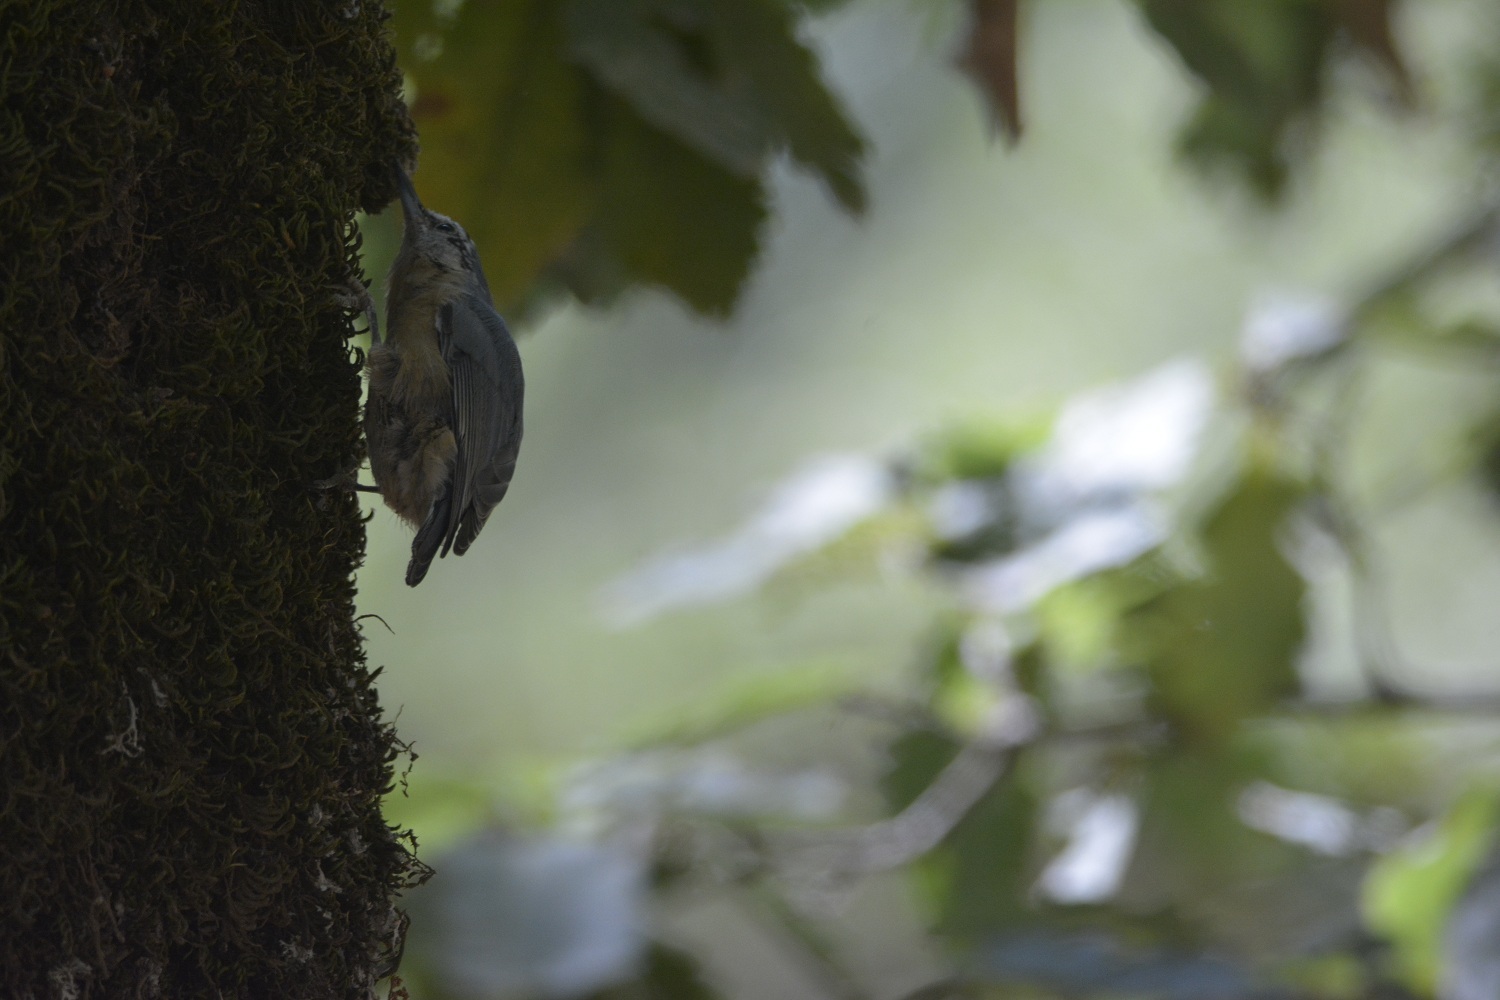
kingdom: Animalia
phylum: Chordata
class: Aves
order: Passeriformes
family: Sittidae
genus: Sitta
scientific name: Sitta ledanti
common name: Algerian nuthatch
